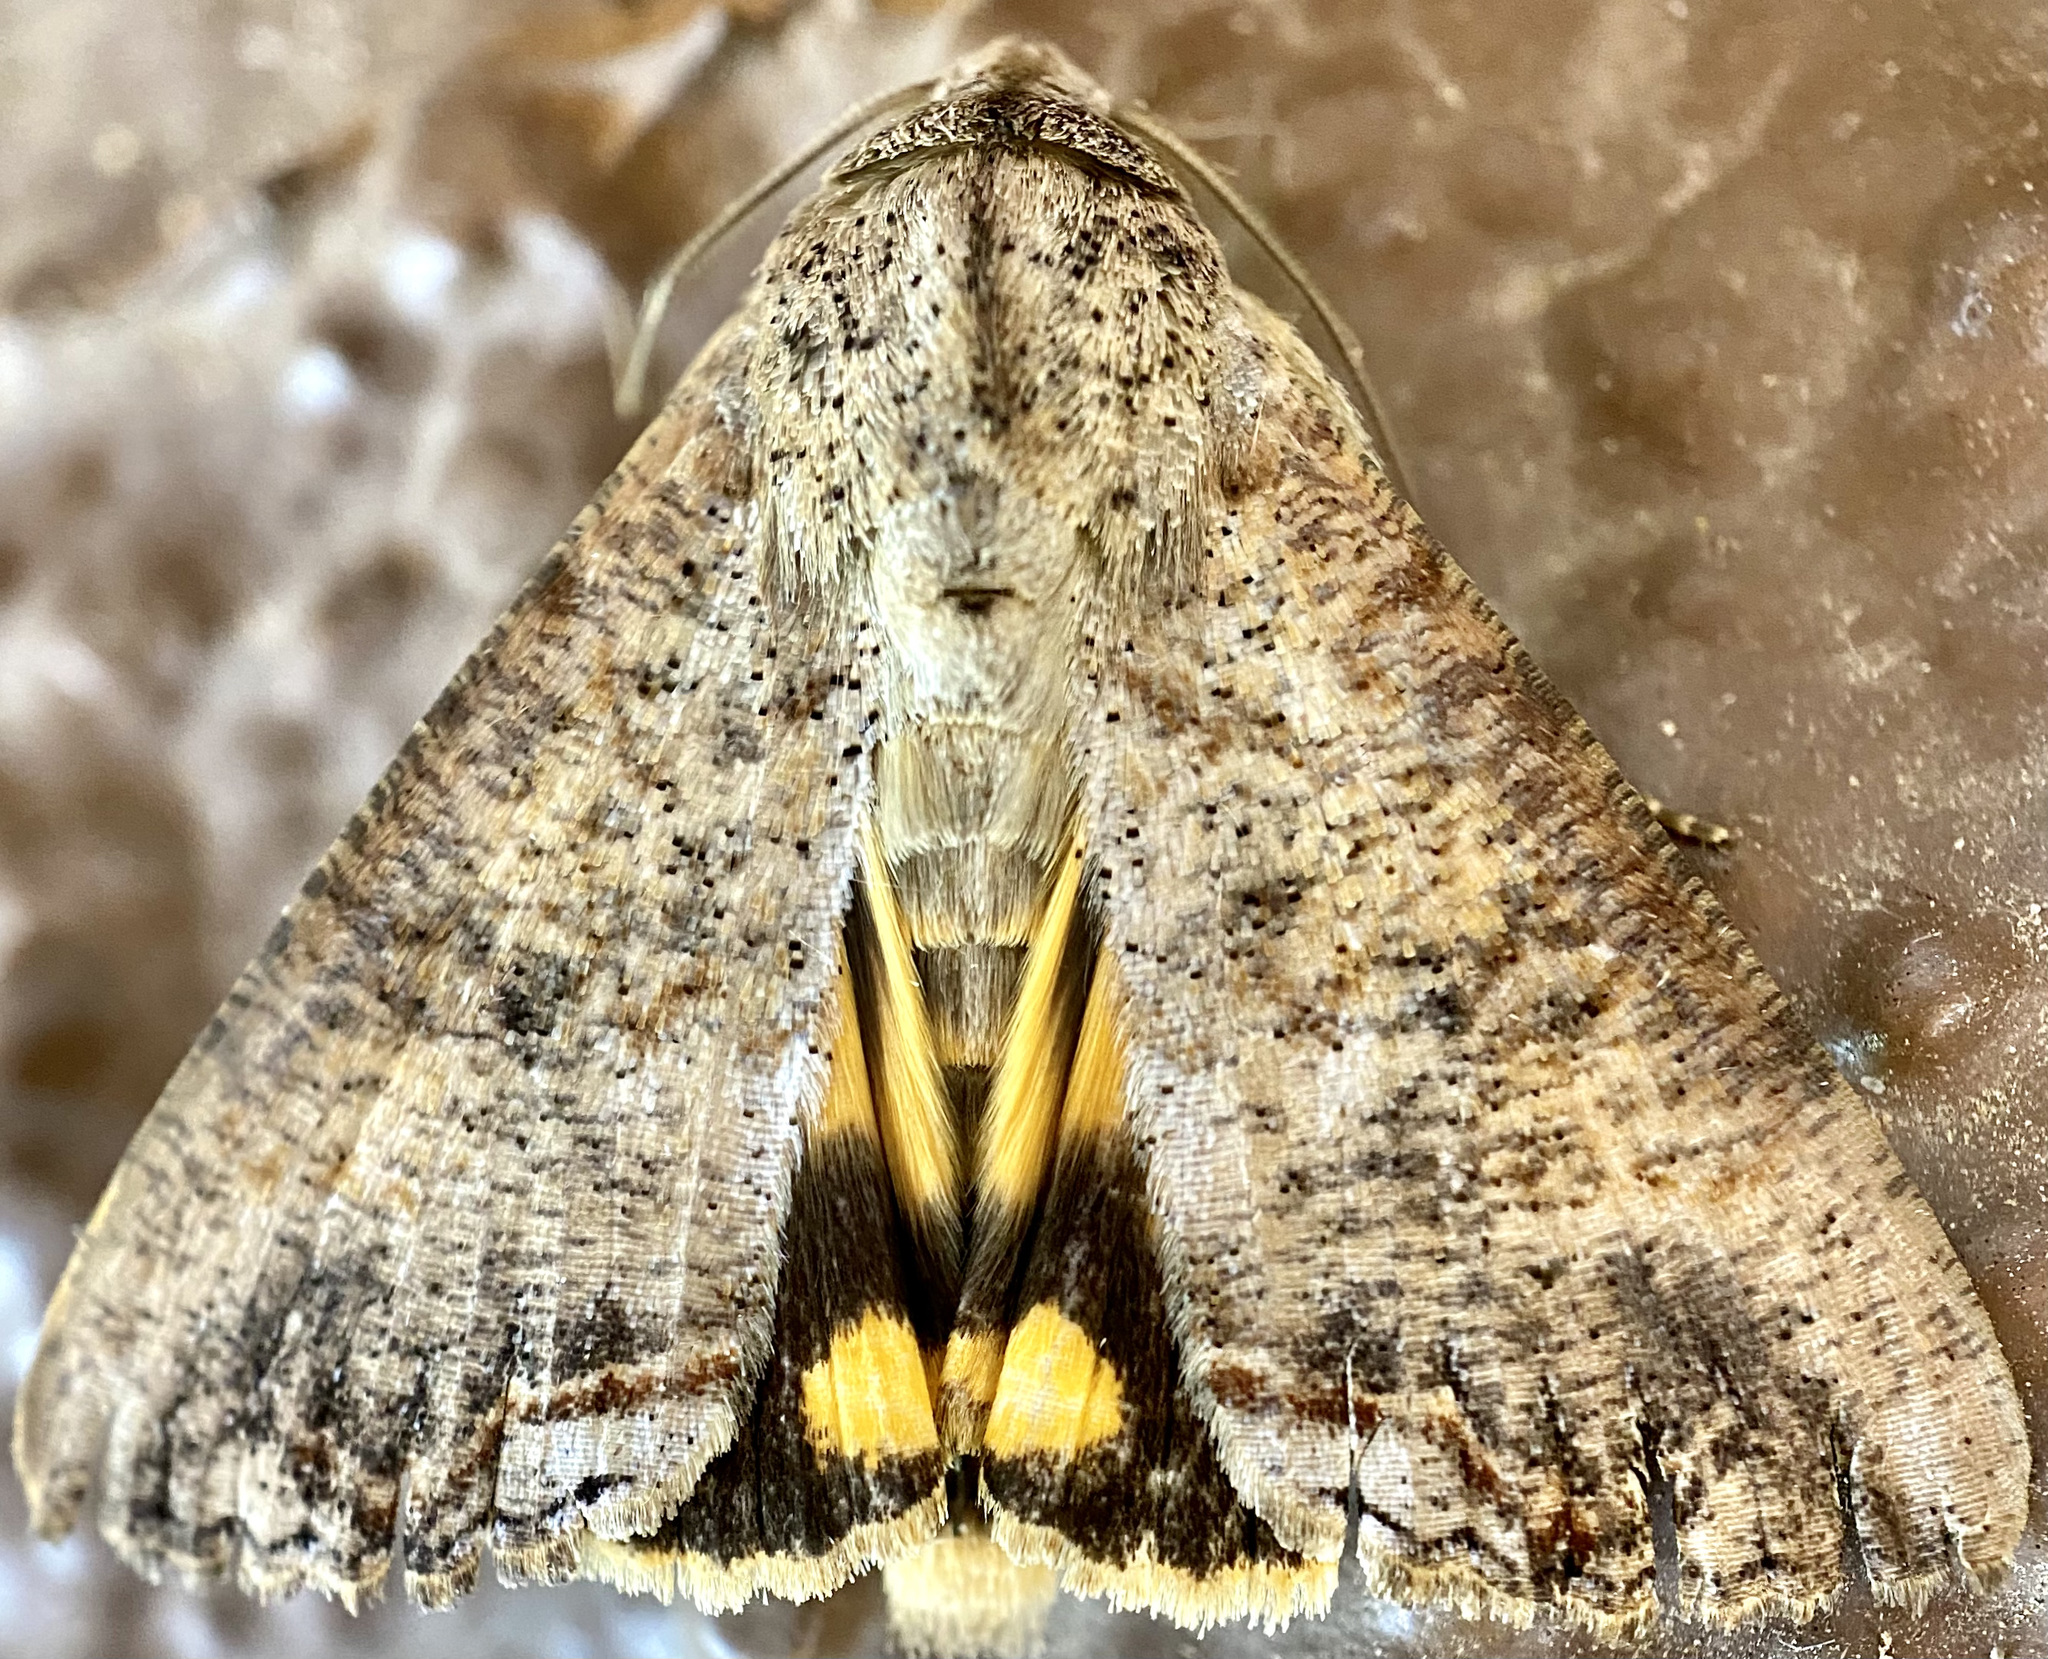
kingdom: Animalia
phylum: Arthropoda
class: Insecta
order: Lepidoptera
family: Erebidae
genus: Hypocala
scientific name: Hypocala andremona
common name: Hypocala moth
